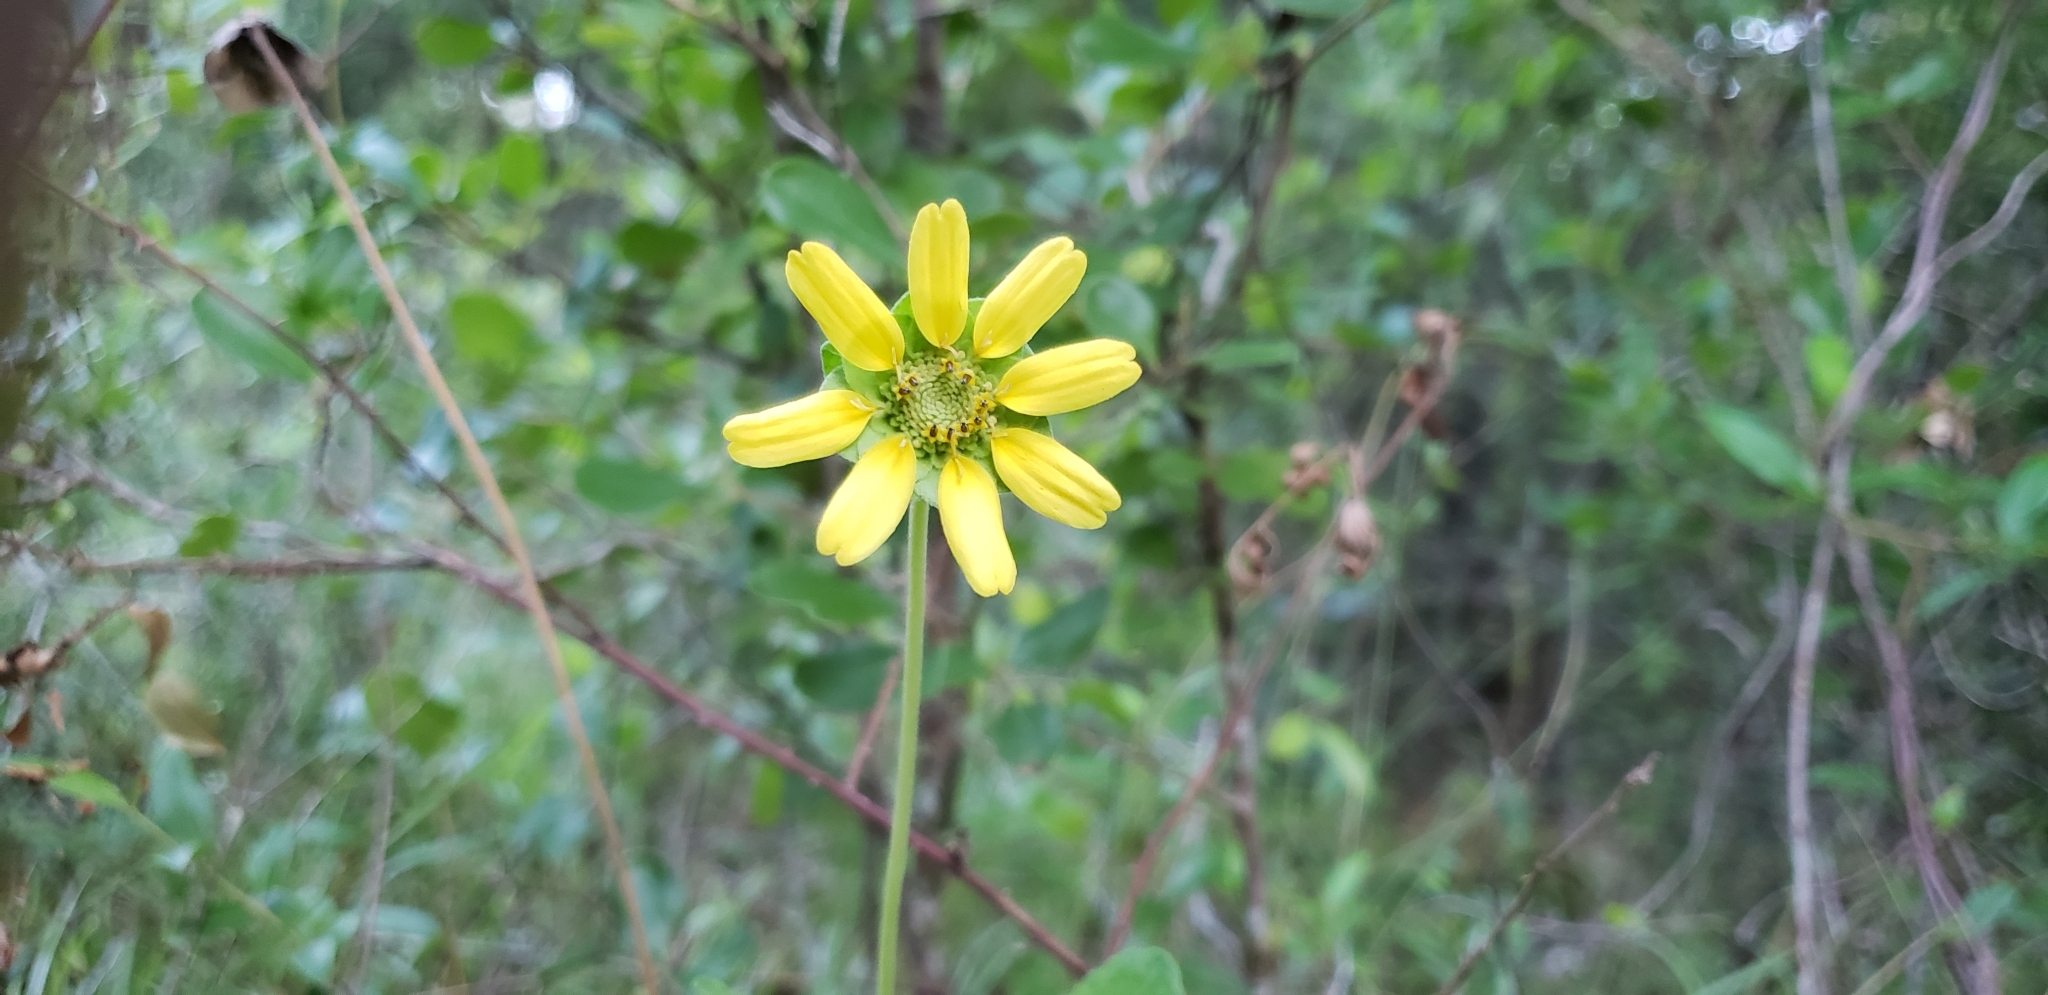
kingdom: Plantae
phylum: Tracheophyta
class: Magnoliopsida
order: Asterales
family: Asteraceae
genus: Berlandiera
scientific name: Berlandiera subacaulis
